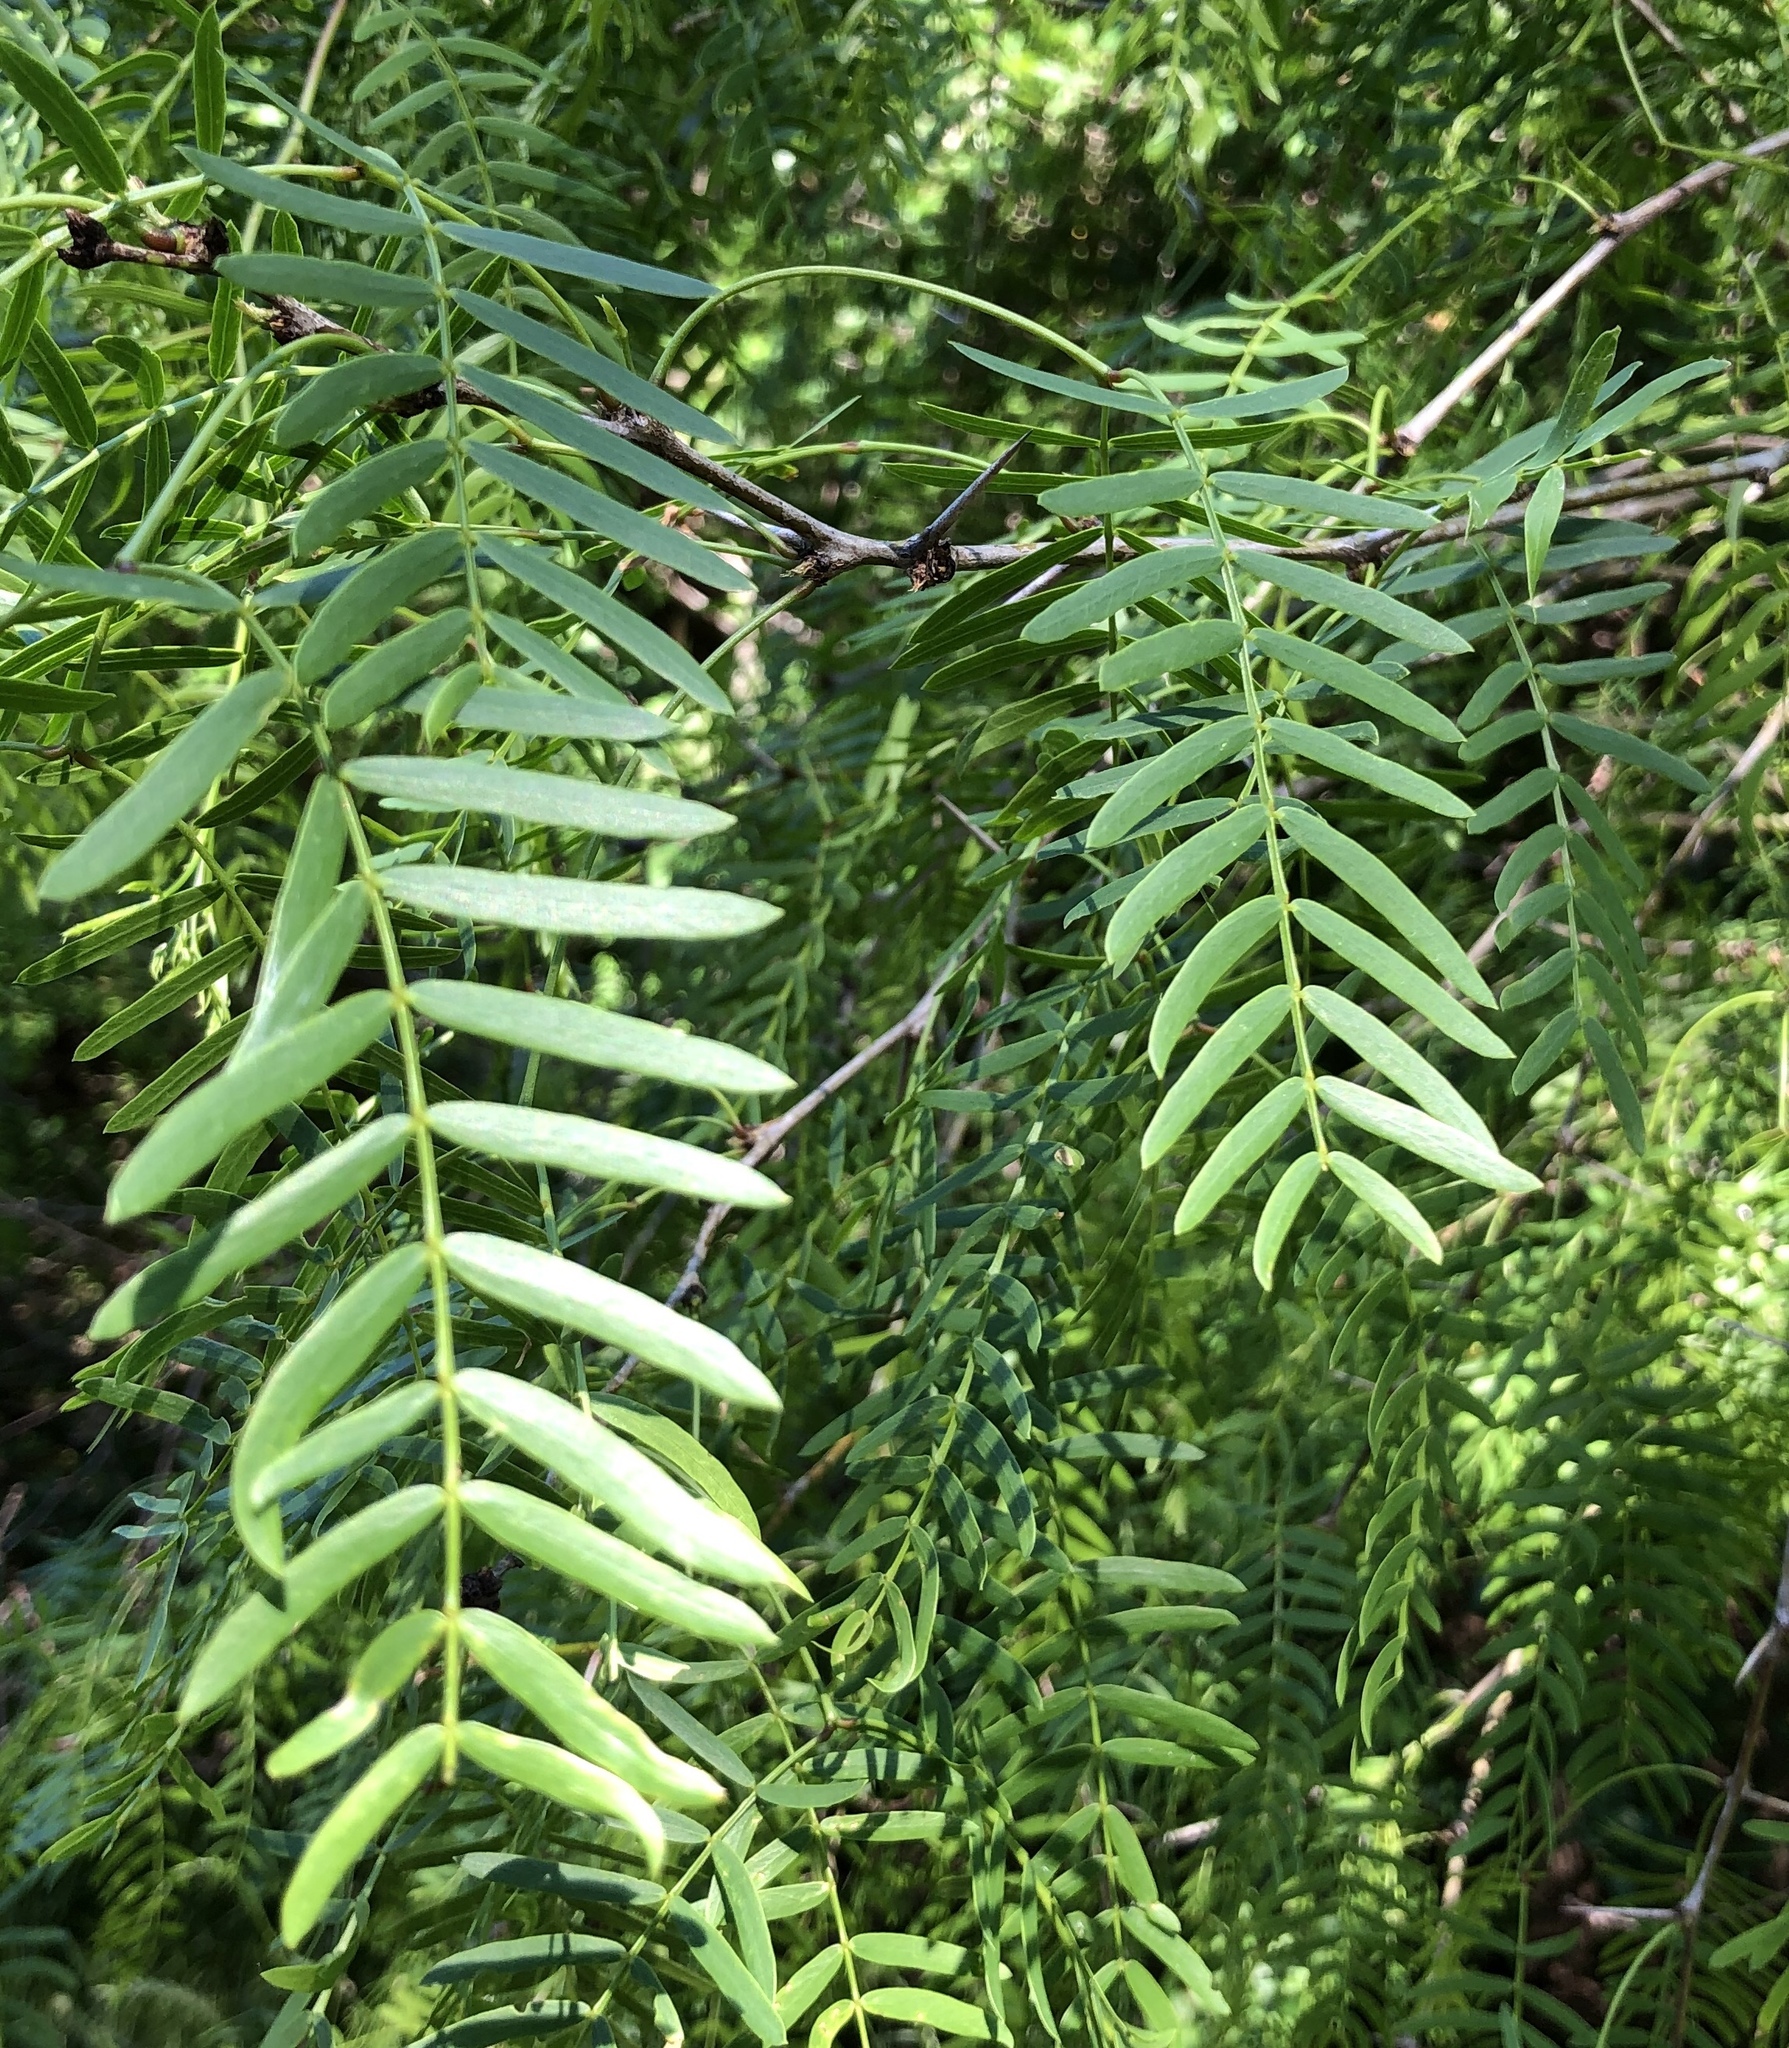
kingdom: Plantae
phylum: Tracheophyta
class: Magnoliopsida
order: Fabales
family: Fabaceae
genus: Prosopis
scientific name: Prosopis glandulosa
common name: Honey mesquite
